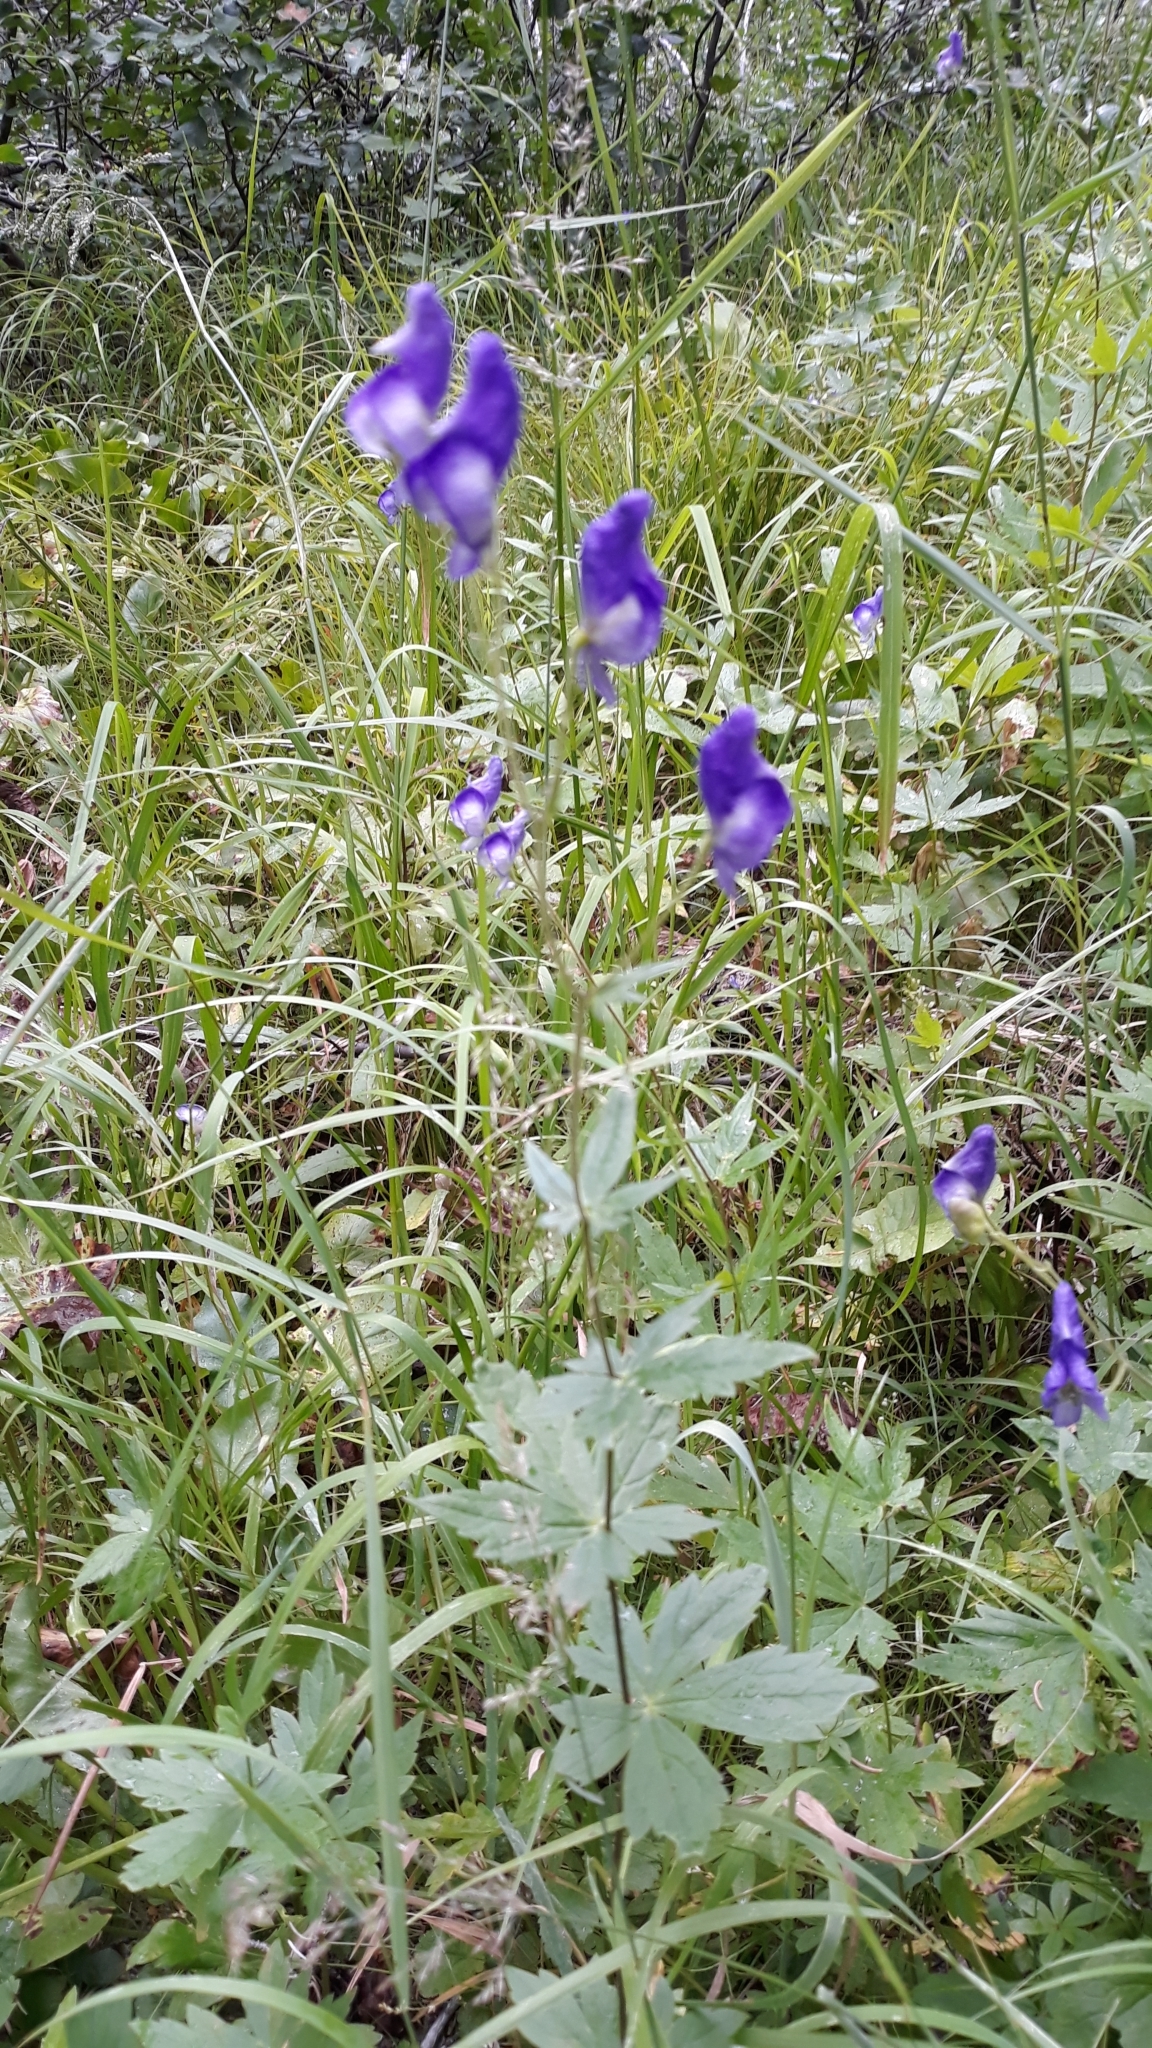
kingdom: Plantae
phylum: Tracheophyta
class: Magnoliopsida
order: Ranunculales
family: Ranunculaceae
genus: Aconitum
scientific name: Aconitum columbianum
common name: Columbia aconite
